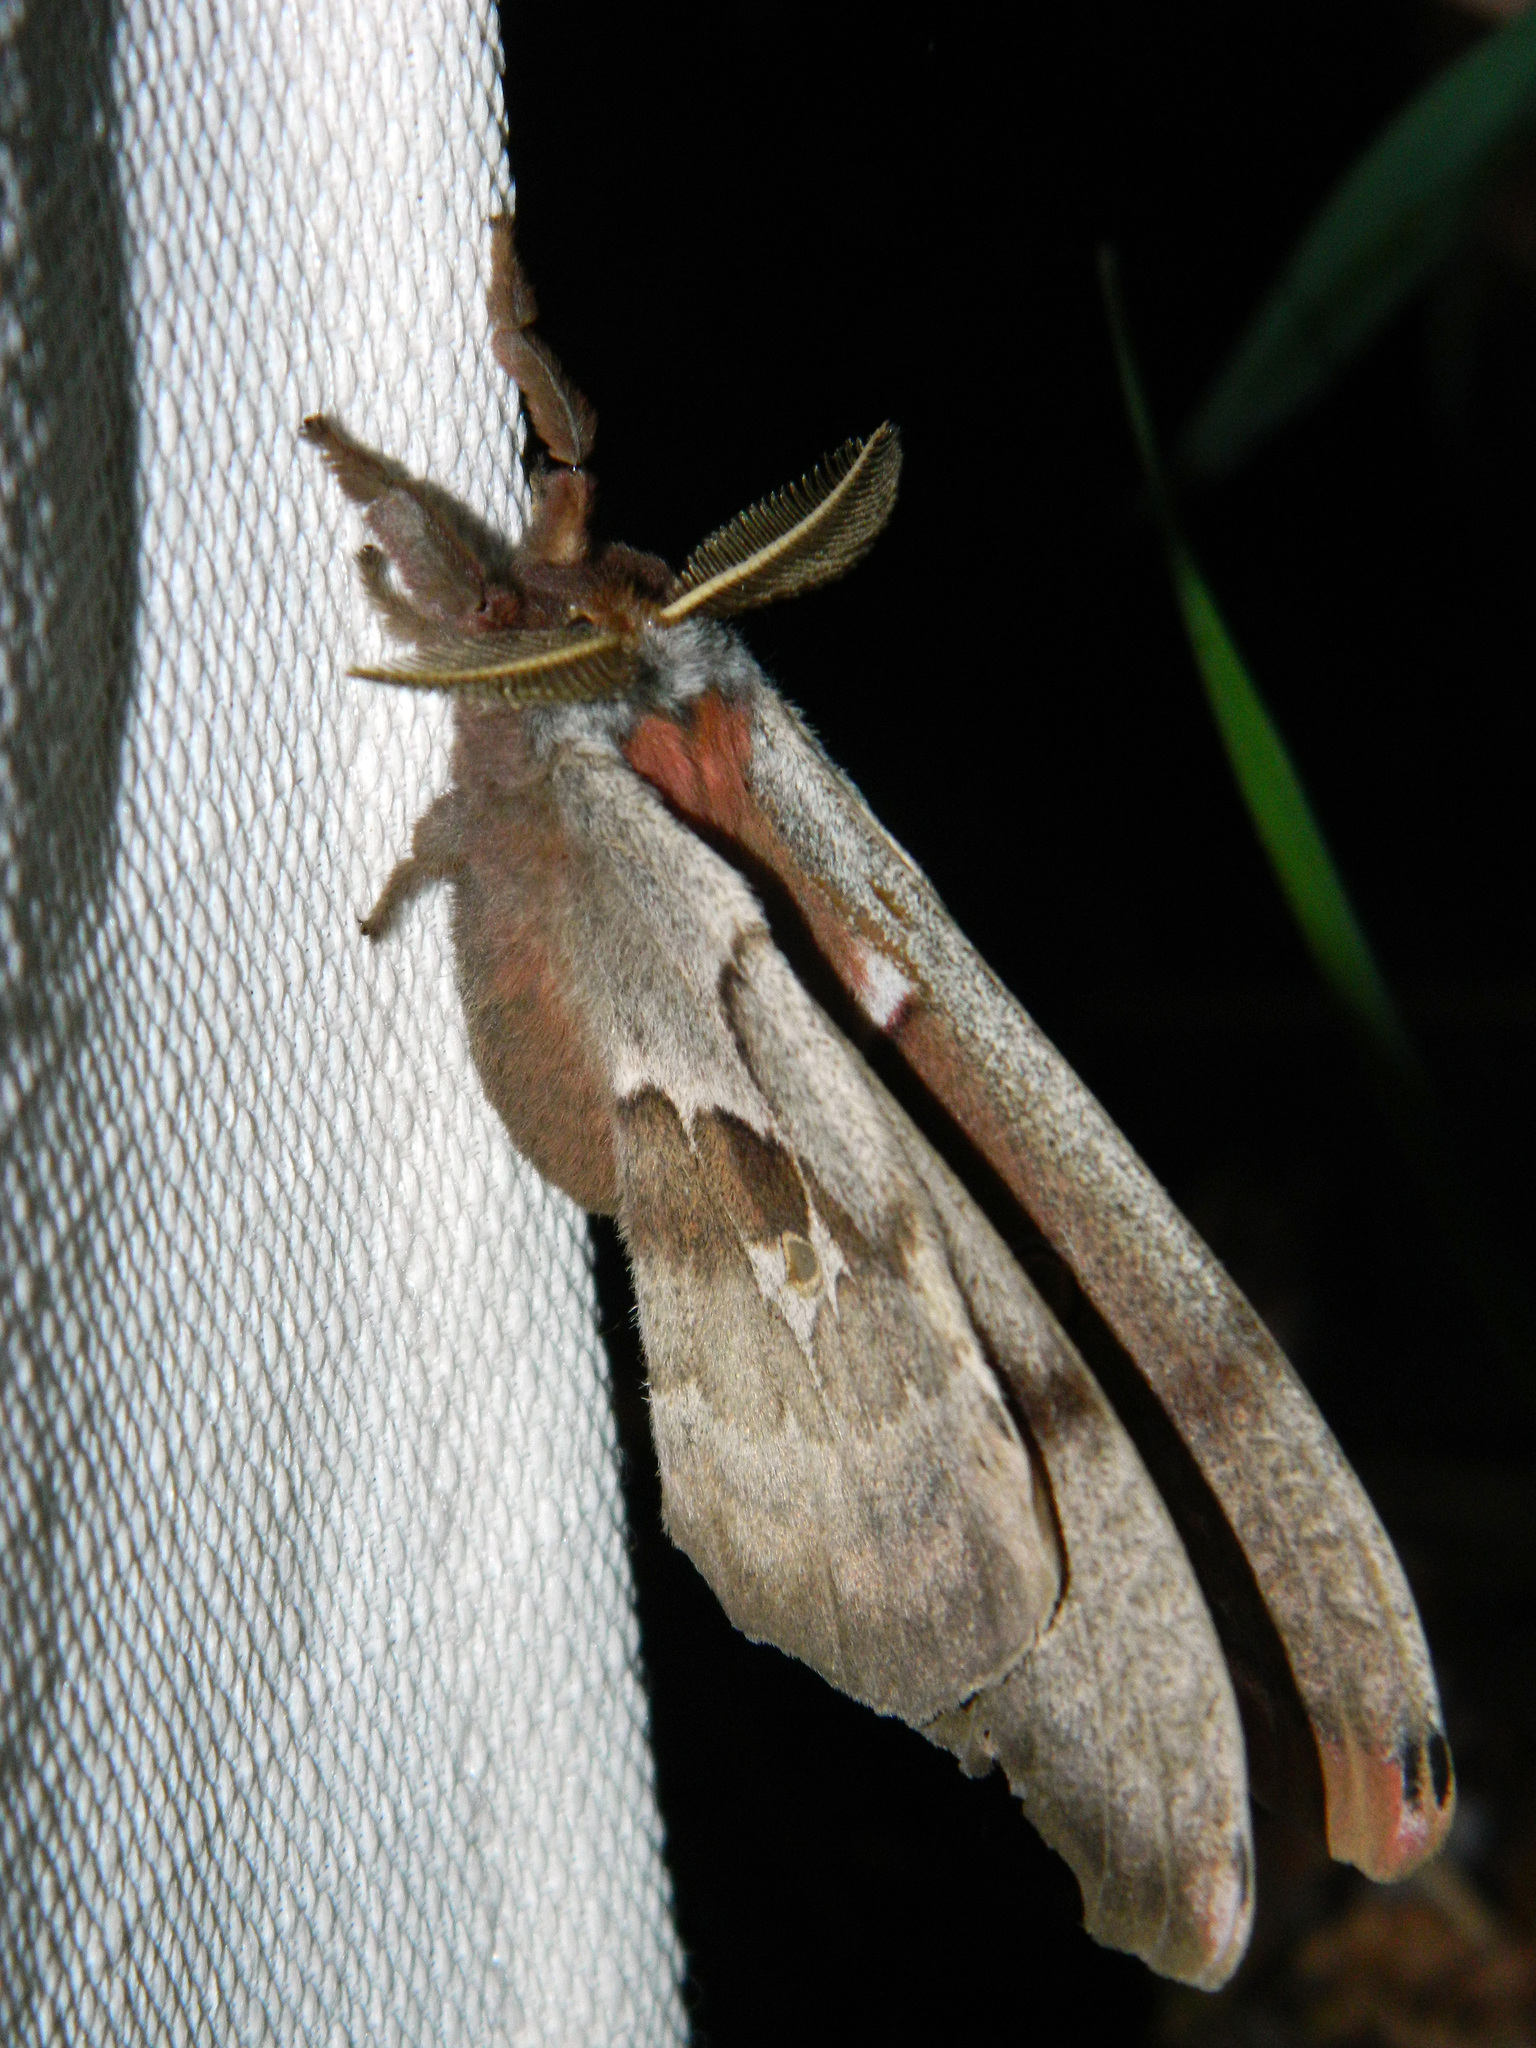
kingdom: Animalia
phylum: Arthropoda
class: Insecta
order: Lepidoptera
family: Saturniidae
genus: Antheraea
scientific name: Antheraea polyphemus
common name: Polyphemus moth
